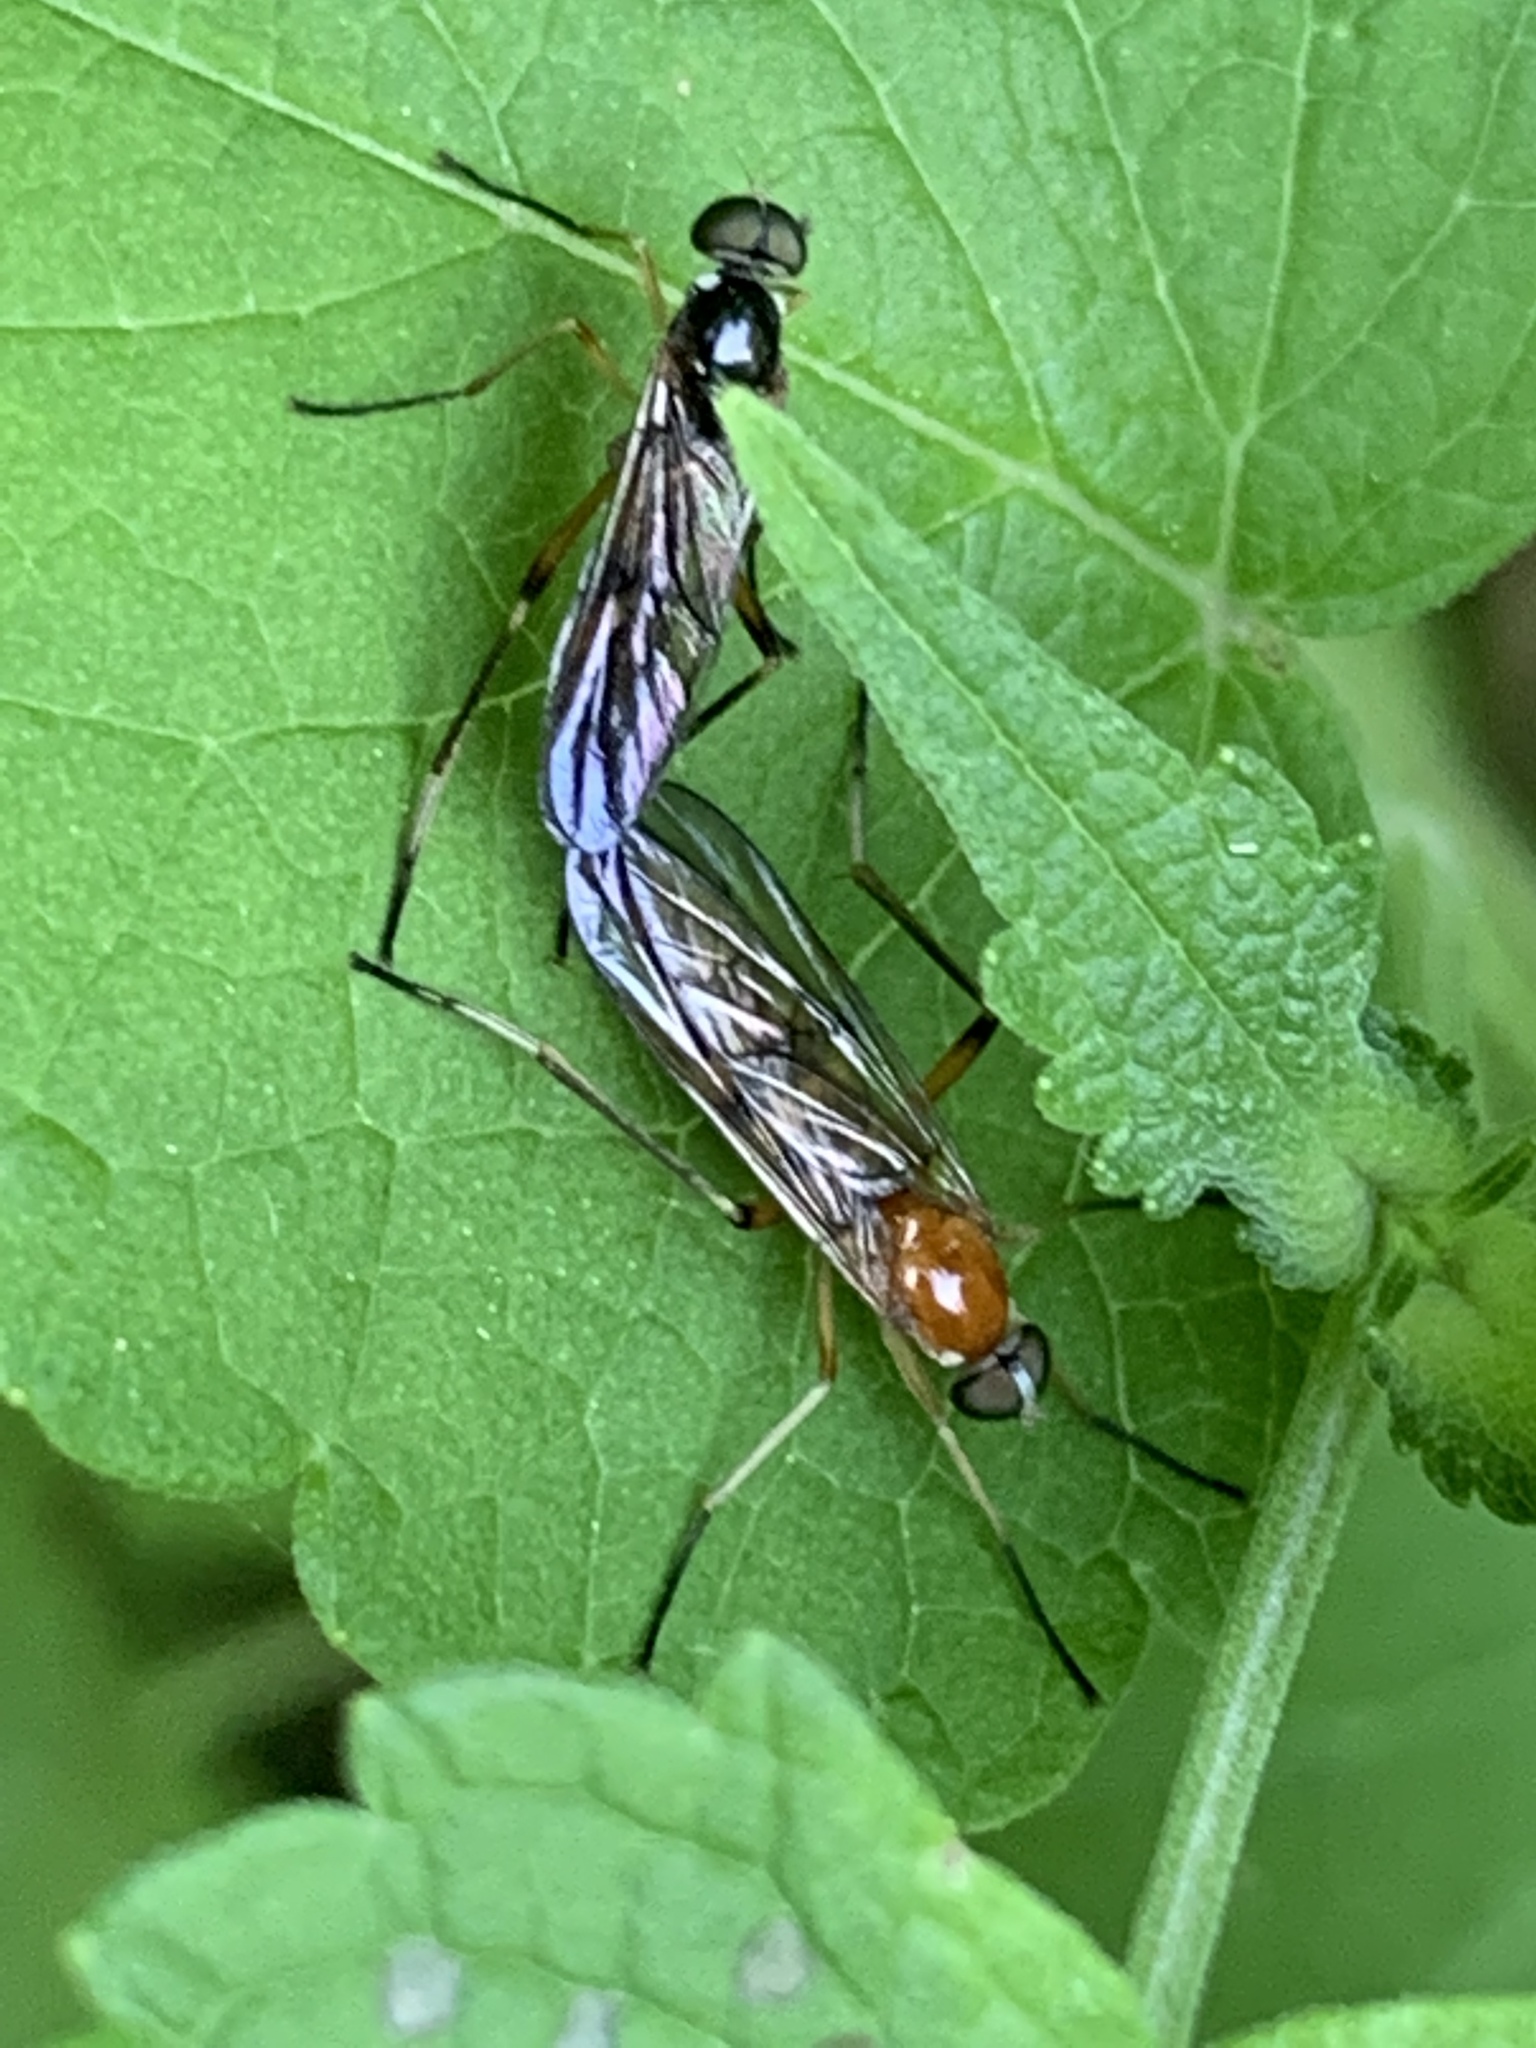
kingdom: Animalia
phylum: Arthropoda
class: Insecta
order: Diptera
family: Xylophagidae
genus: Dialysis
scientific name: Dialysis elongata
